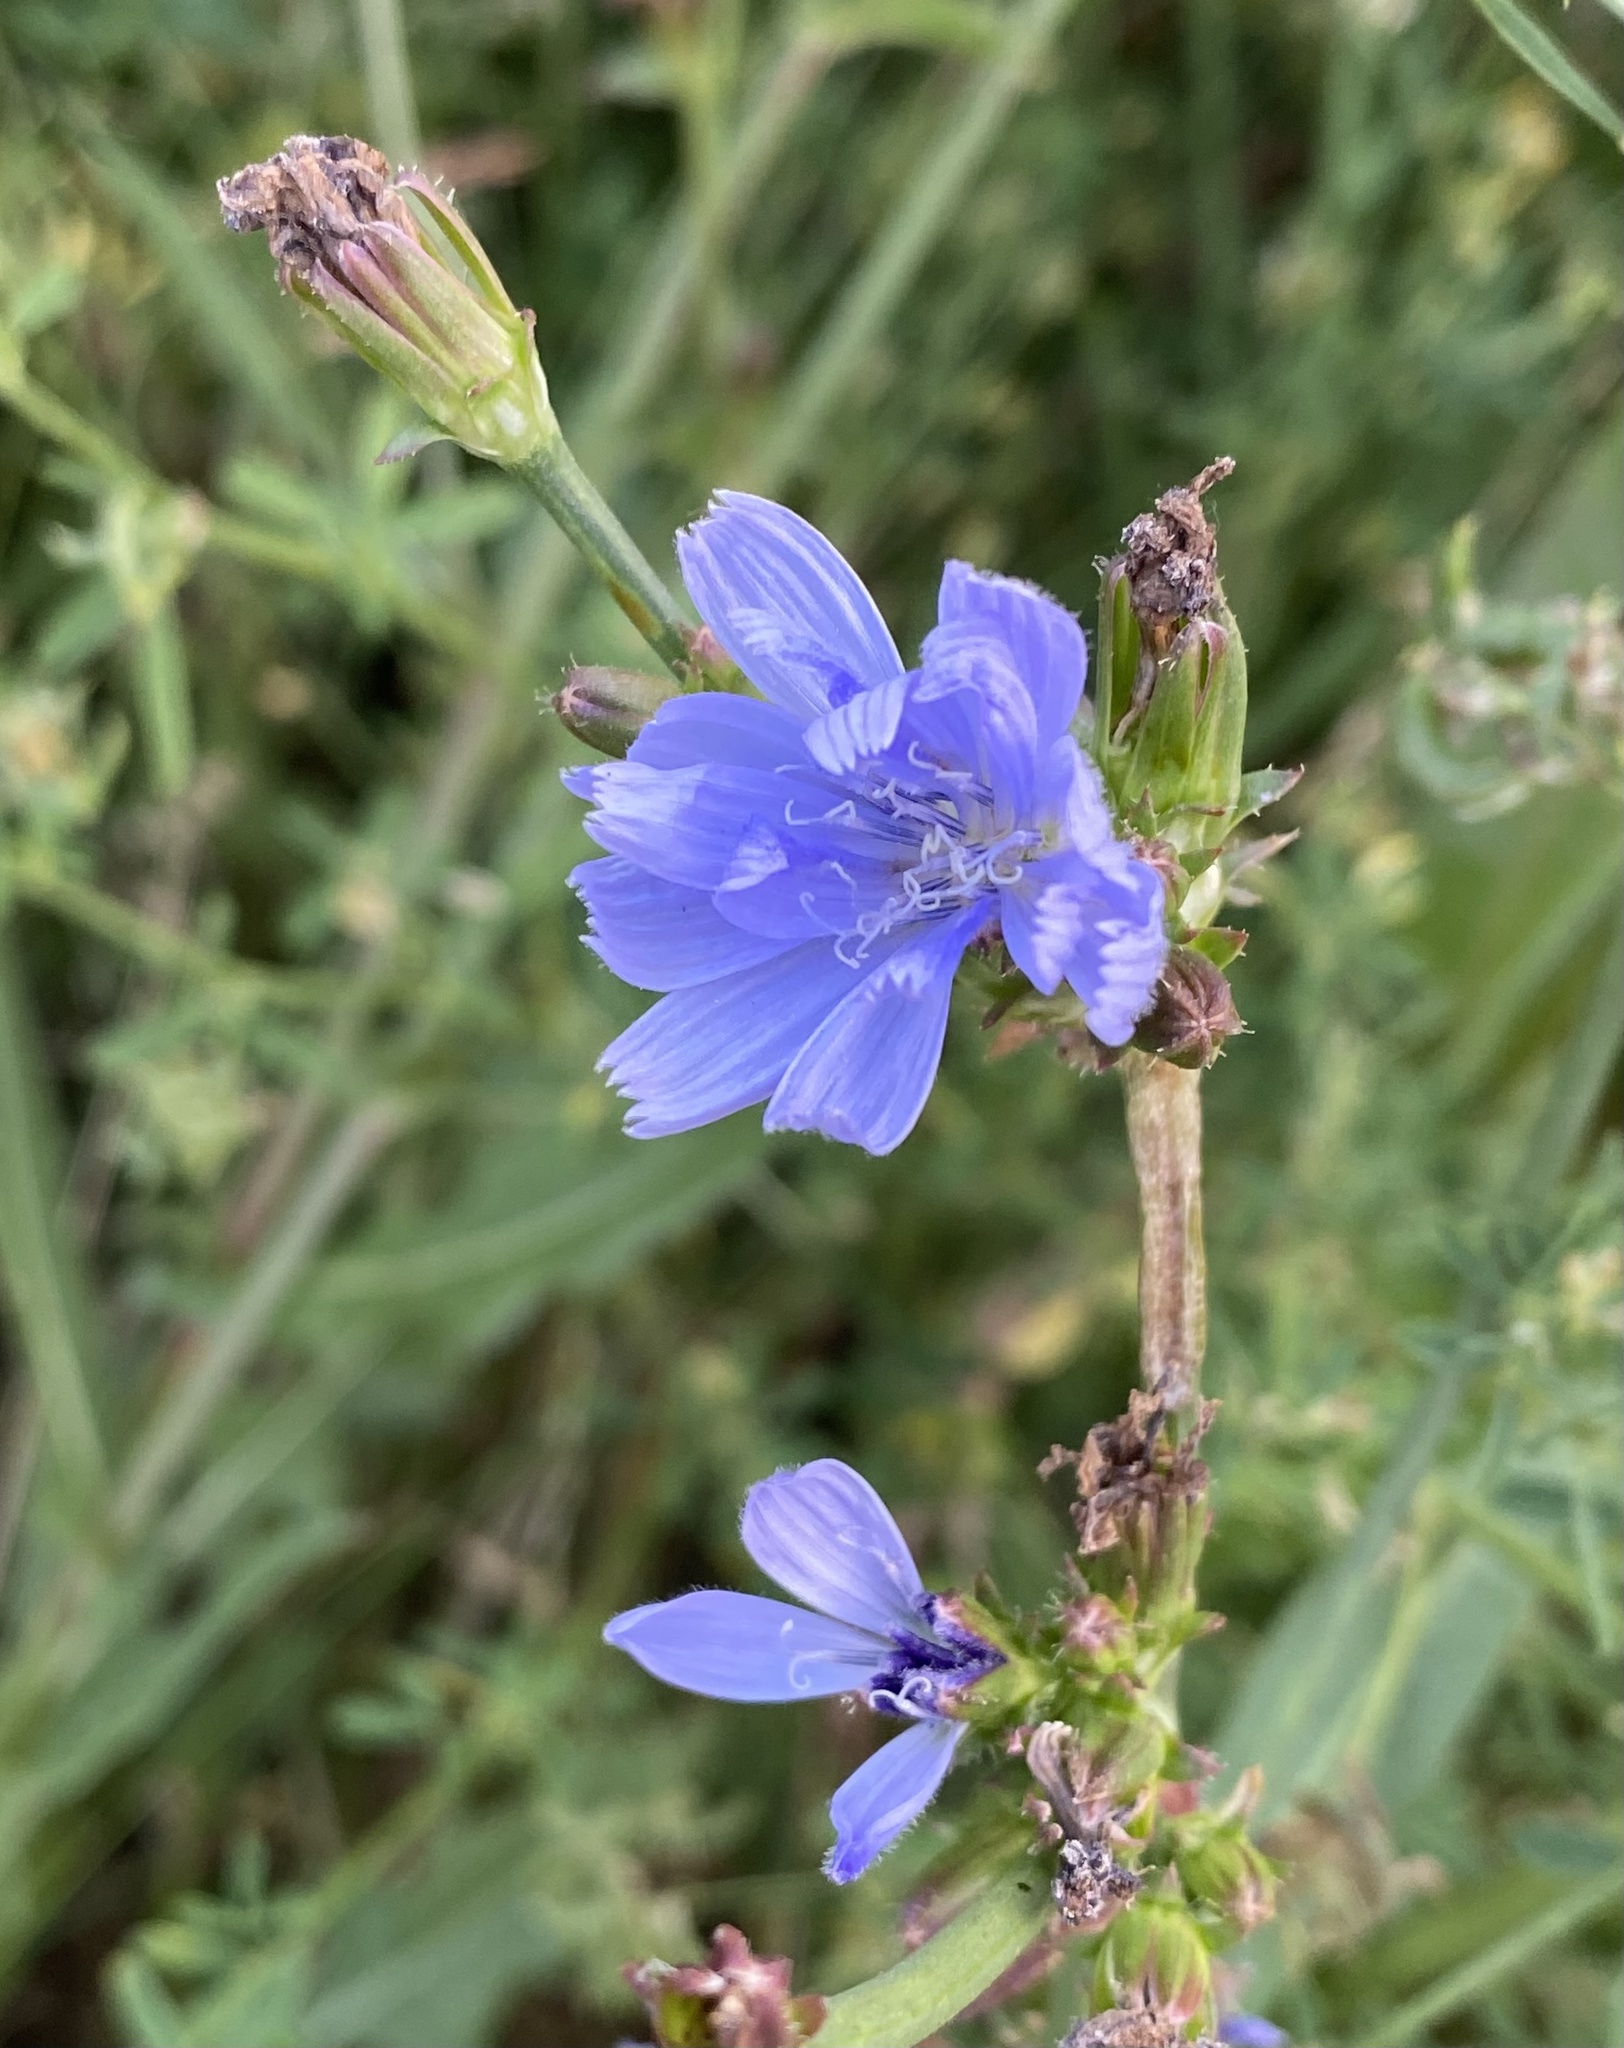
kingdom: Plantae
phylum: Tracheophyta
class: Magnoliopsida
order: Asterales
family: Asteraceae
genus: Cichorium
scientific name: Cichorium intybus
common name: Chicory
